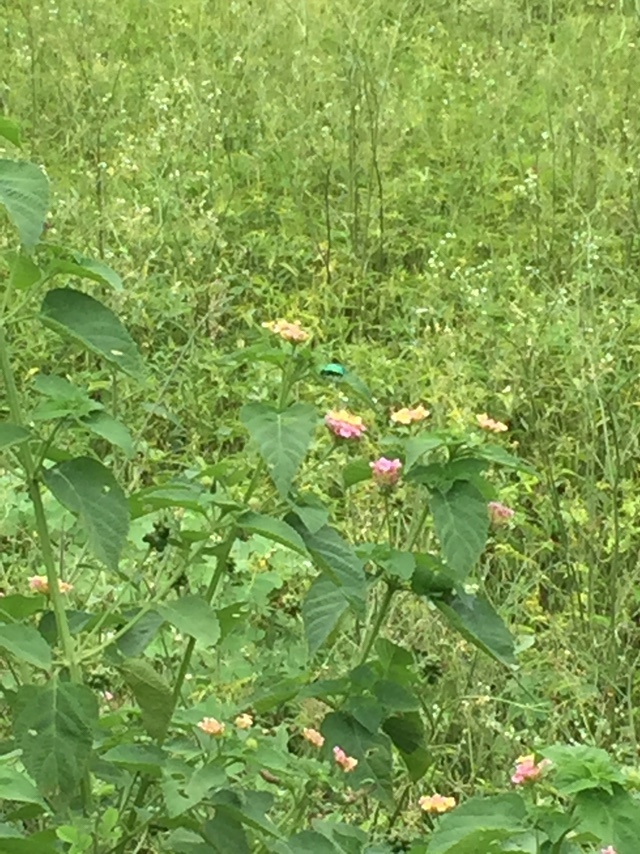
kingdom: Plantae
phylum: Tracheophyta
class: Magnoliopsida
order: Lamiales
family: Verbenaceae
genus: Lantana
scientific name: Lantana camara
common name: Lantana
